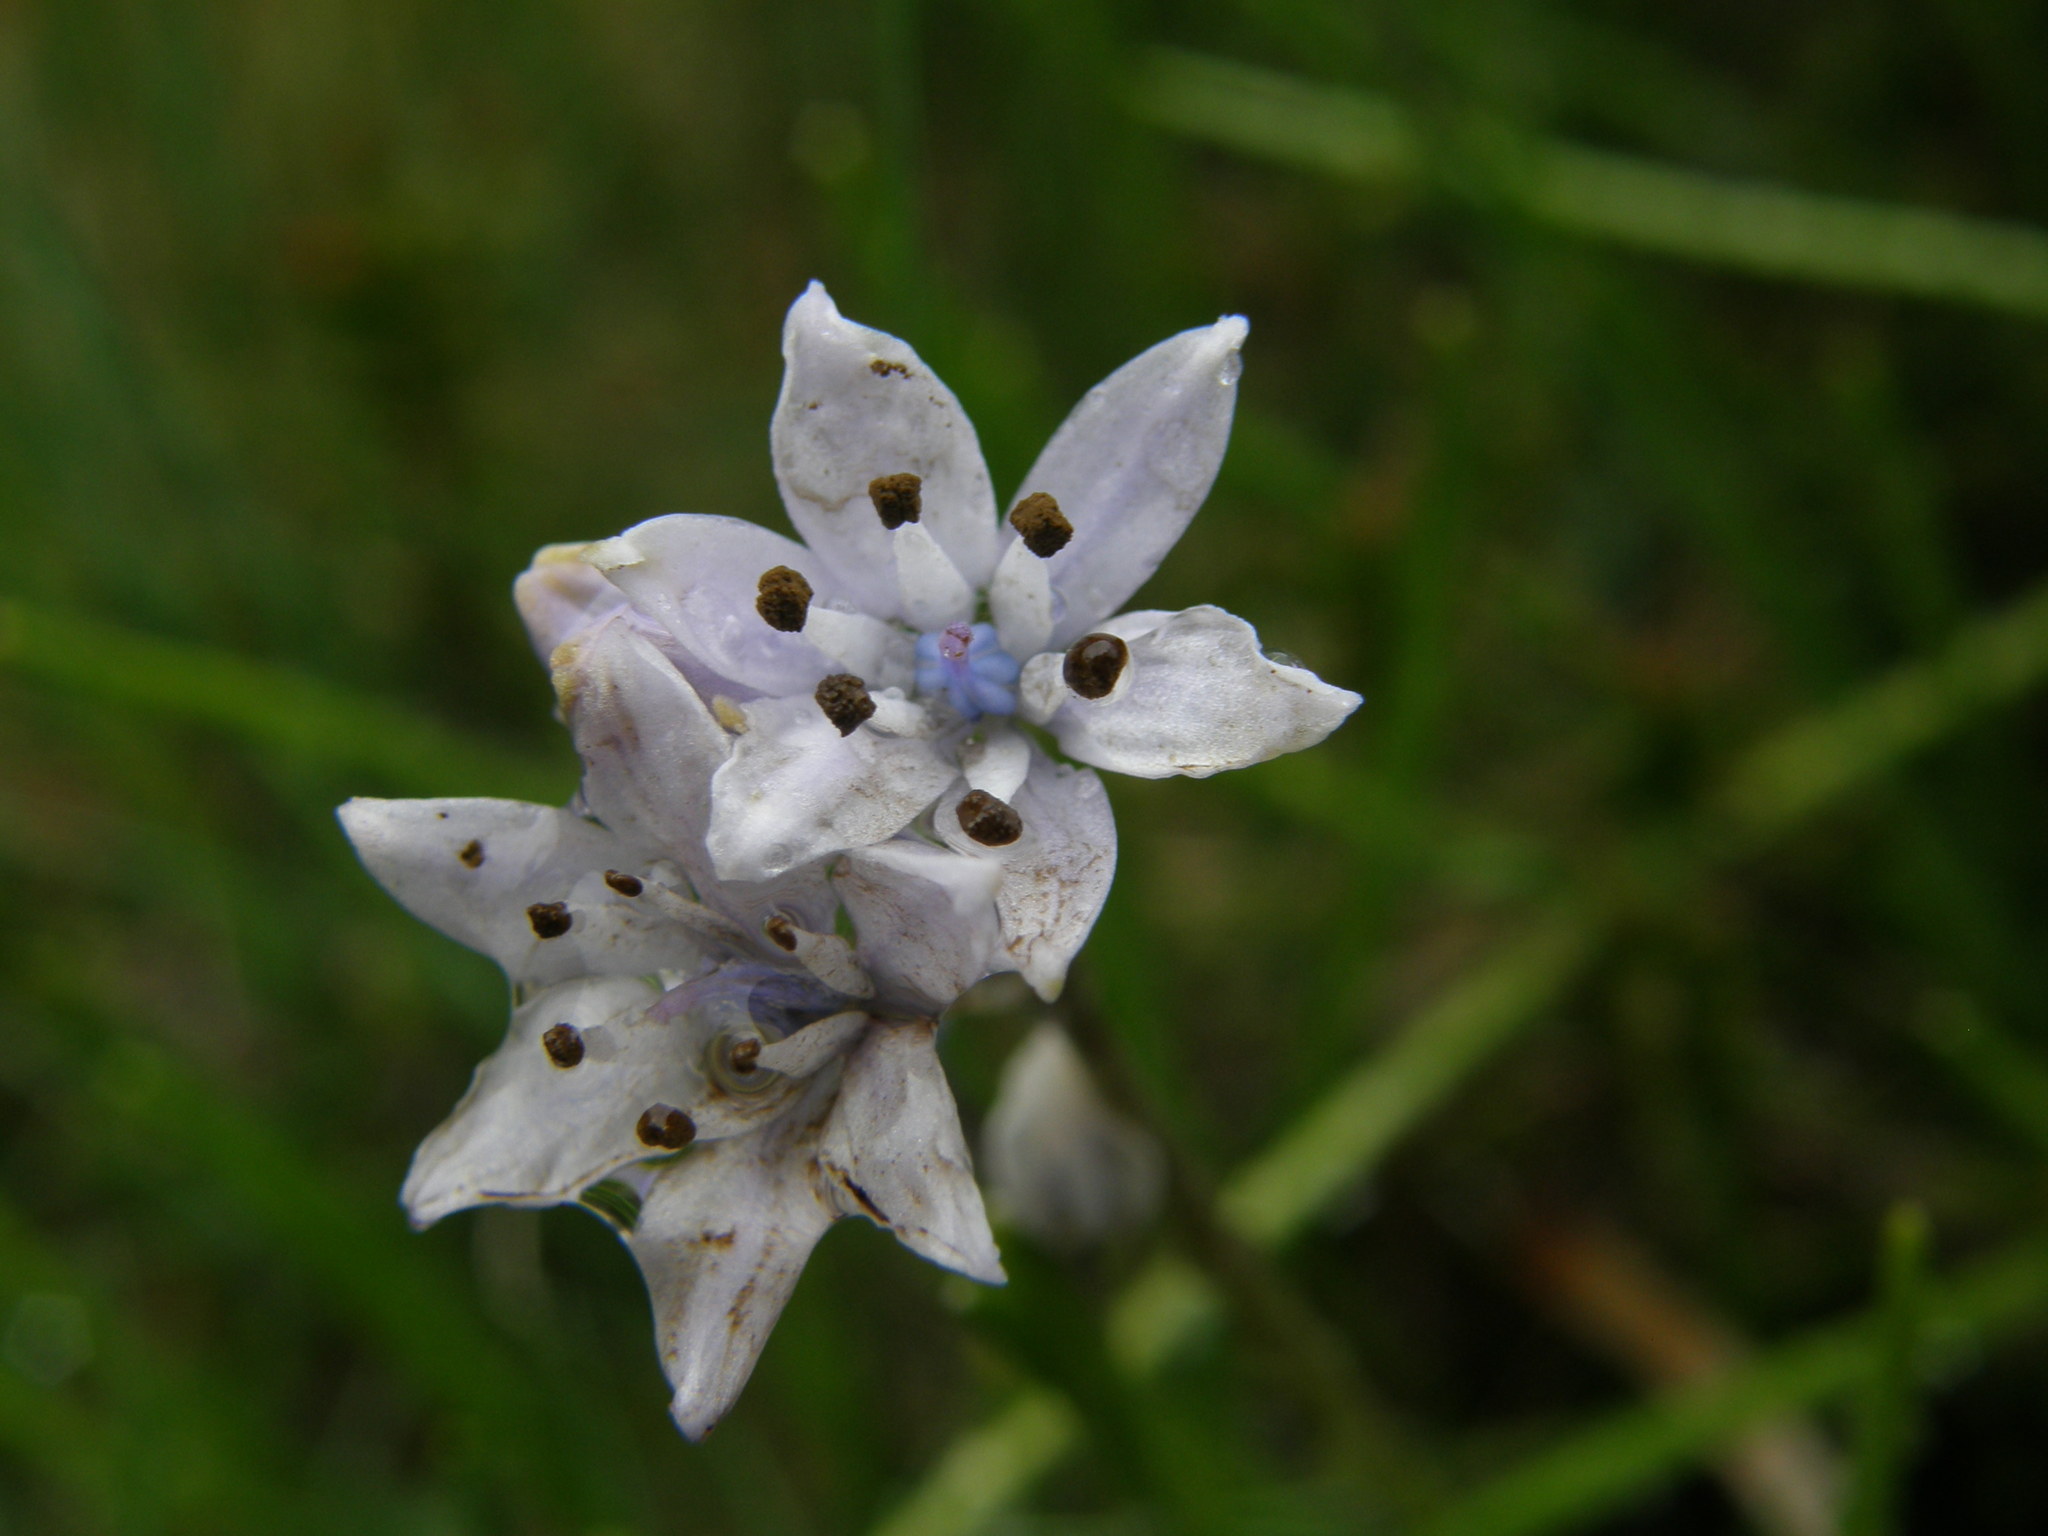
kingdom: Plantae
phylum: Tracheophyta
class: Liliopsida
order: Asparagales
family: Asparagaceae
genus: Scilla
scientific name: Scilla verna
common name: Spring squill
